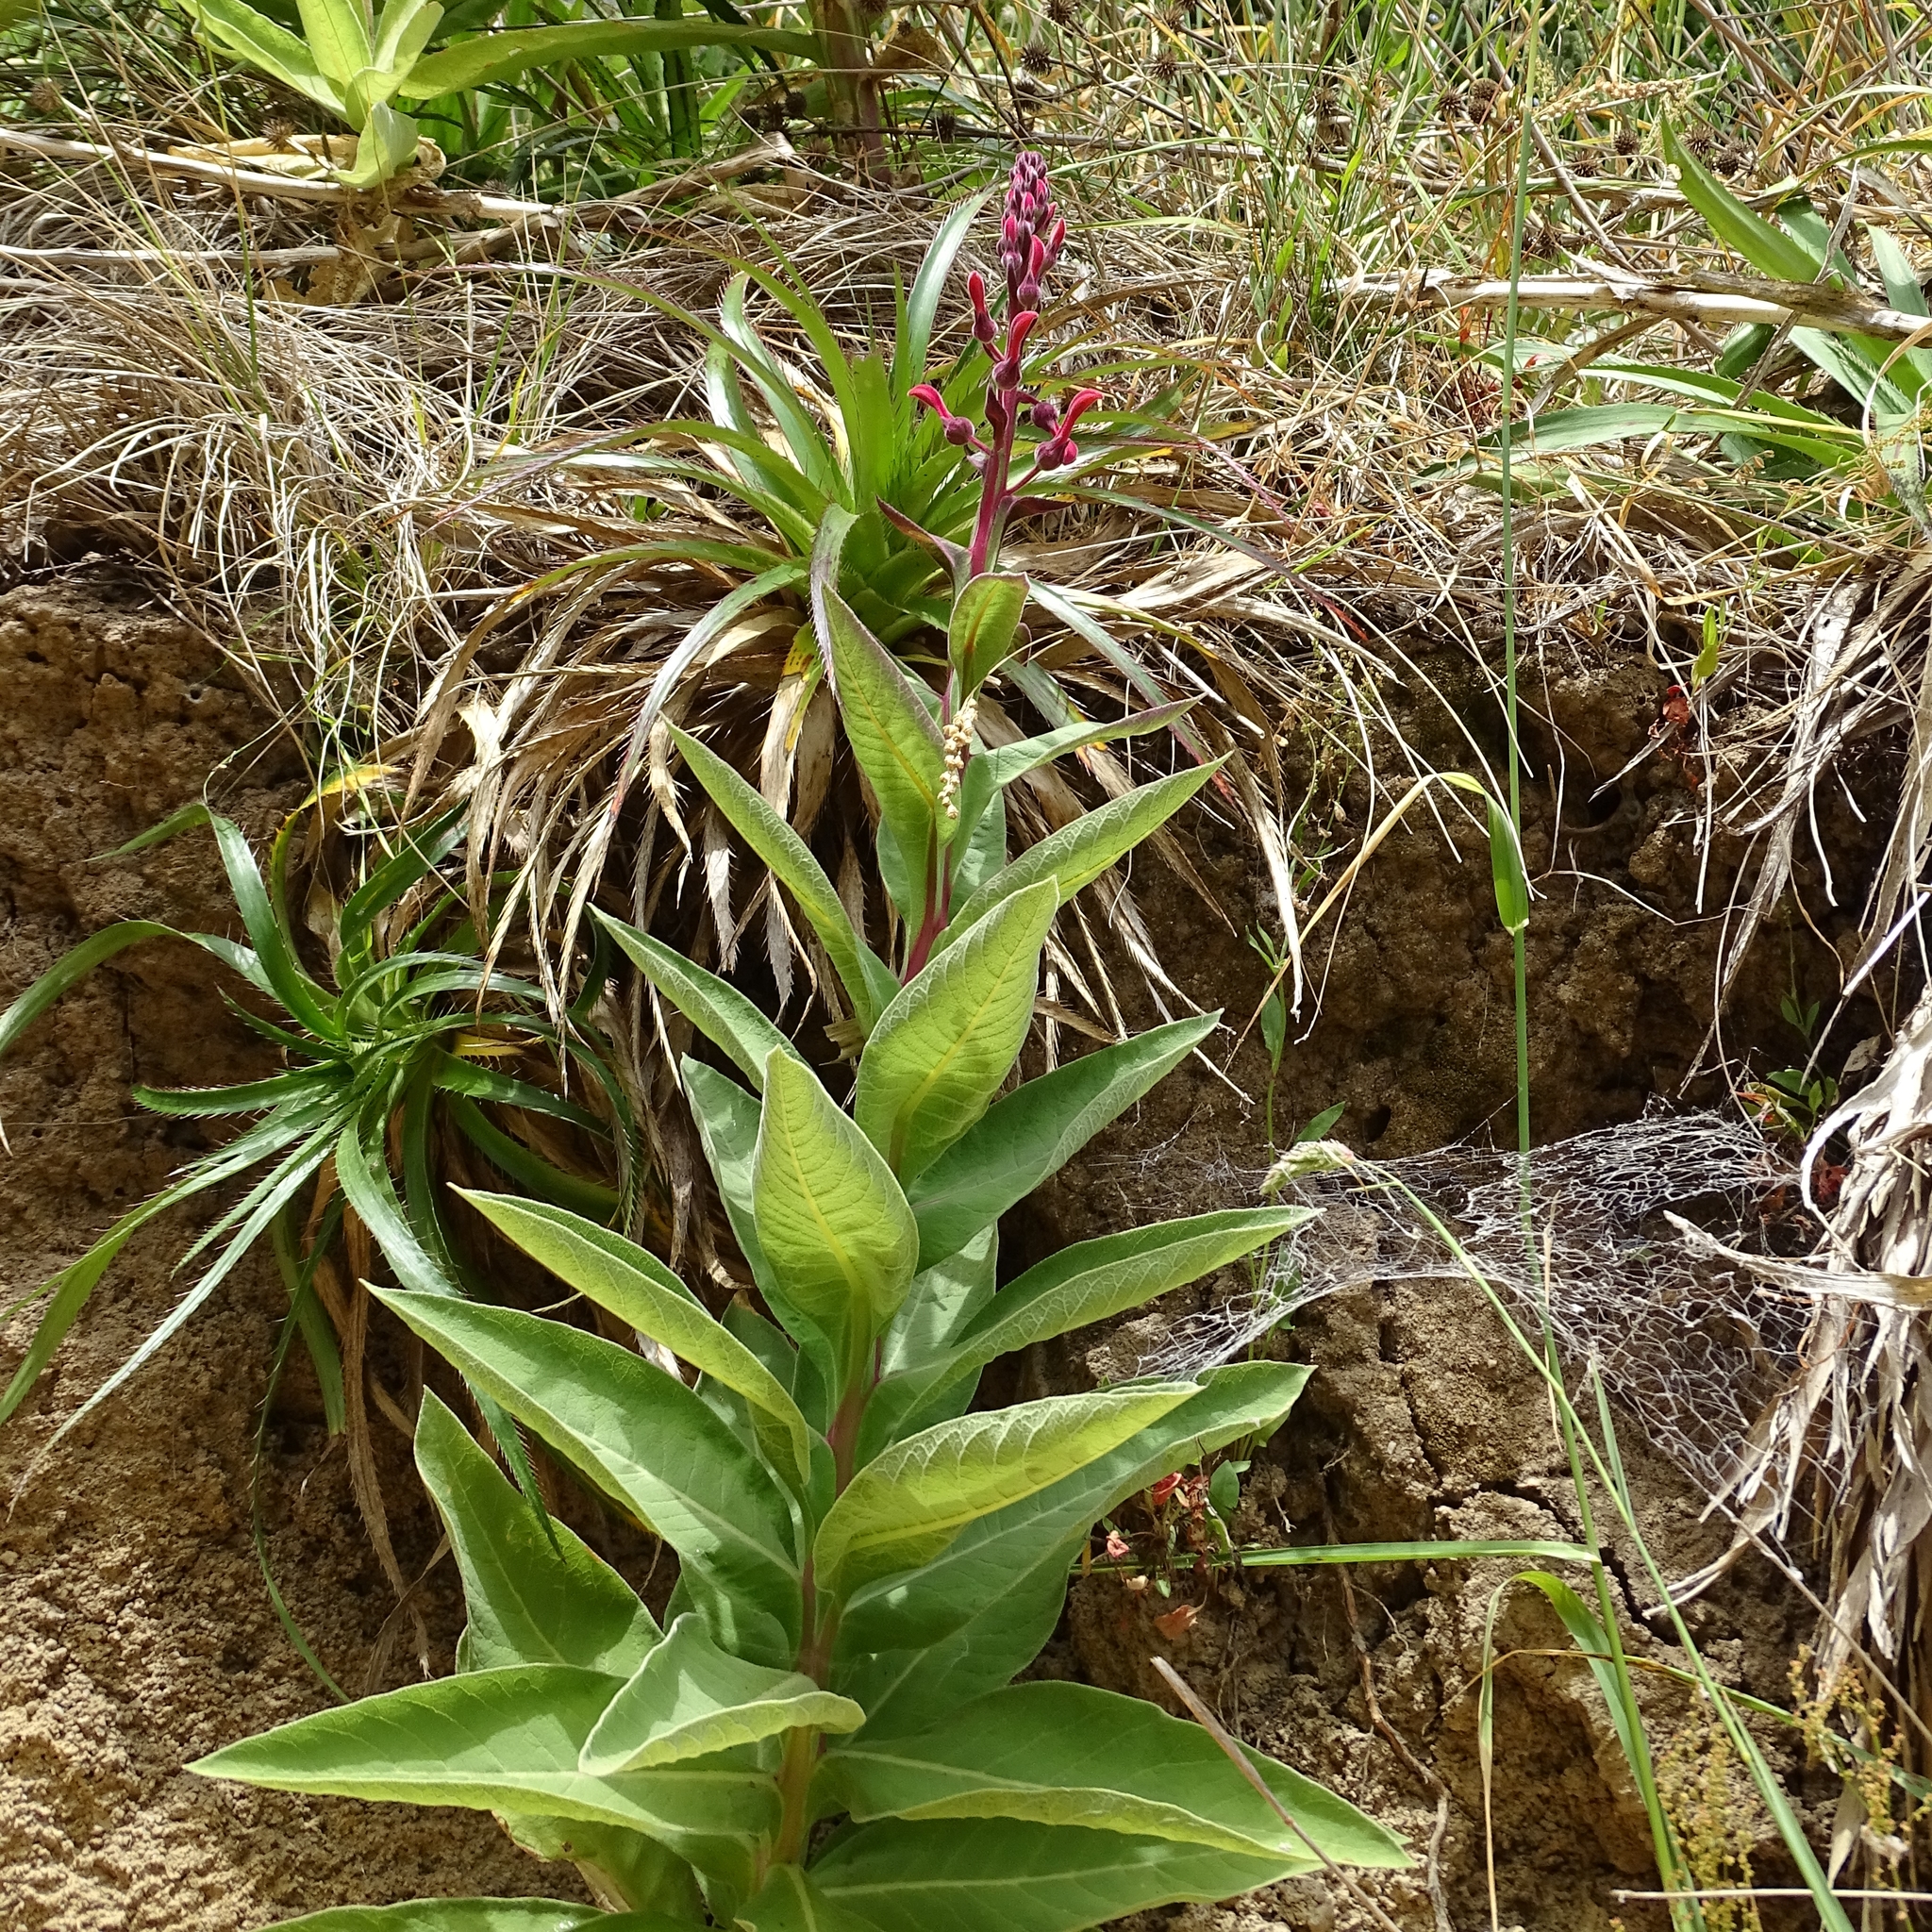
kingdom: Plantae
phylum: Tracheophyta
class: Magnoliopsida
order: Asterales
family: Campanulaceae
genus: Lobelia
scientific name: Lobelia tupa
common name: Devil's-tobacco
